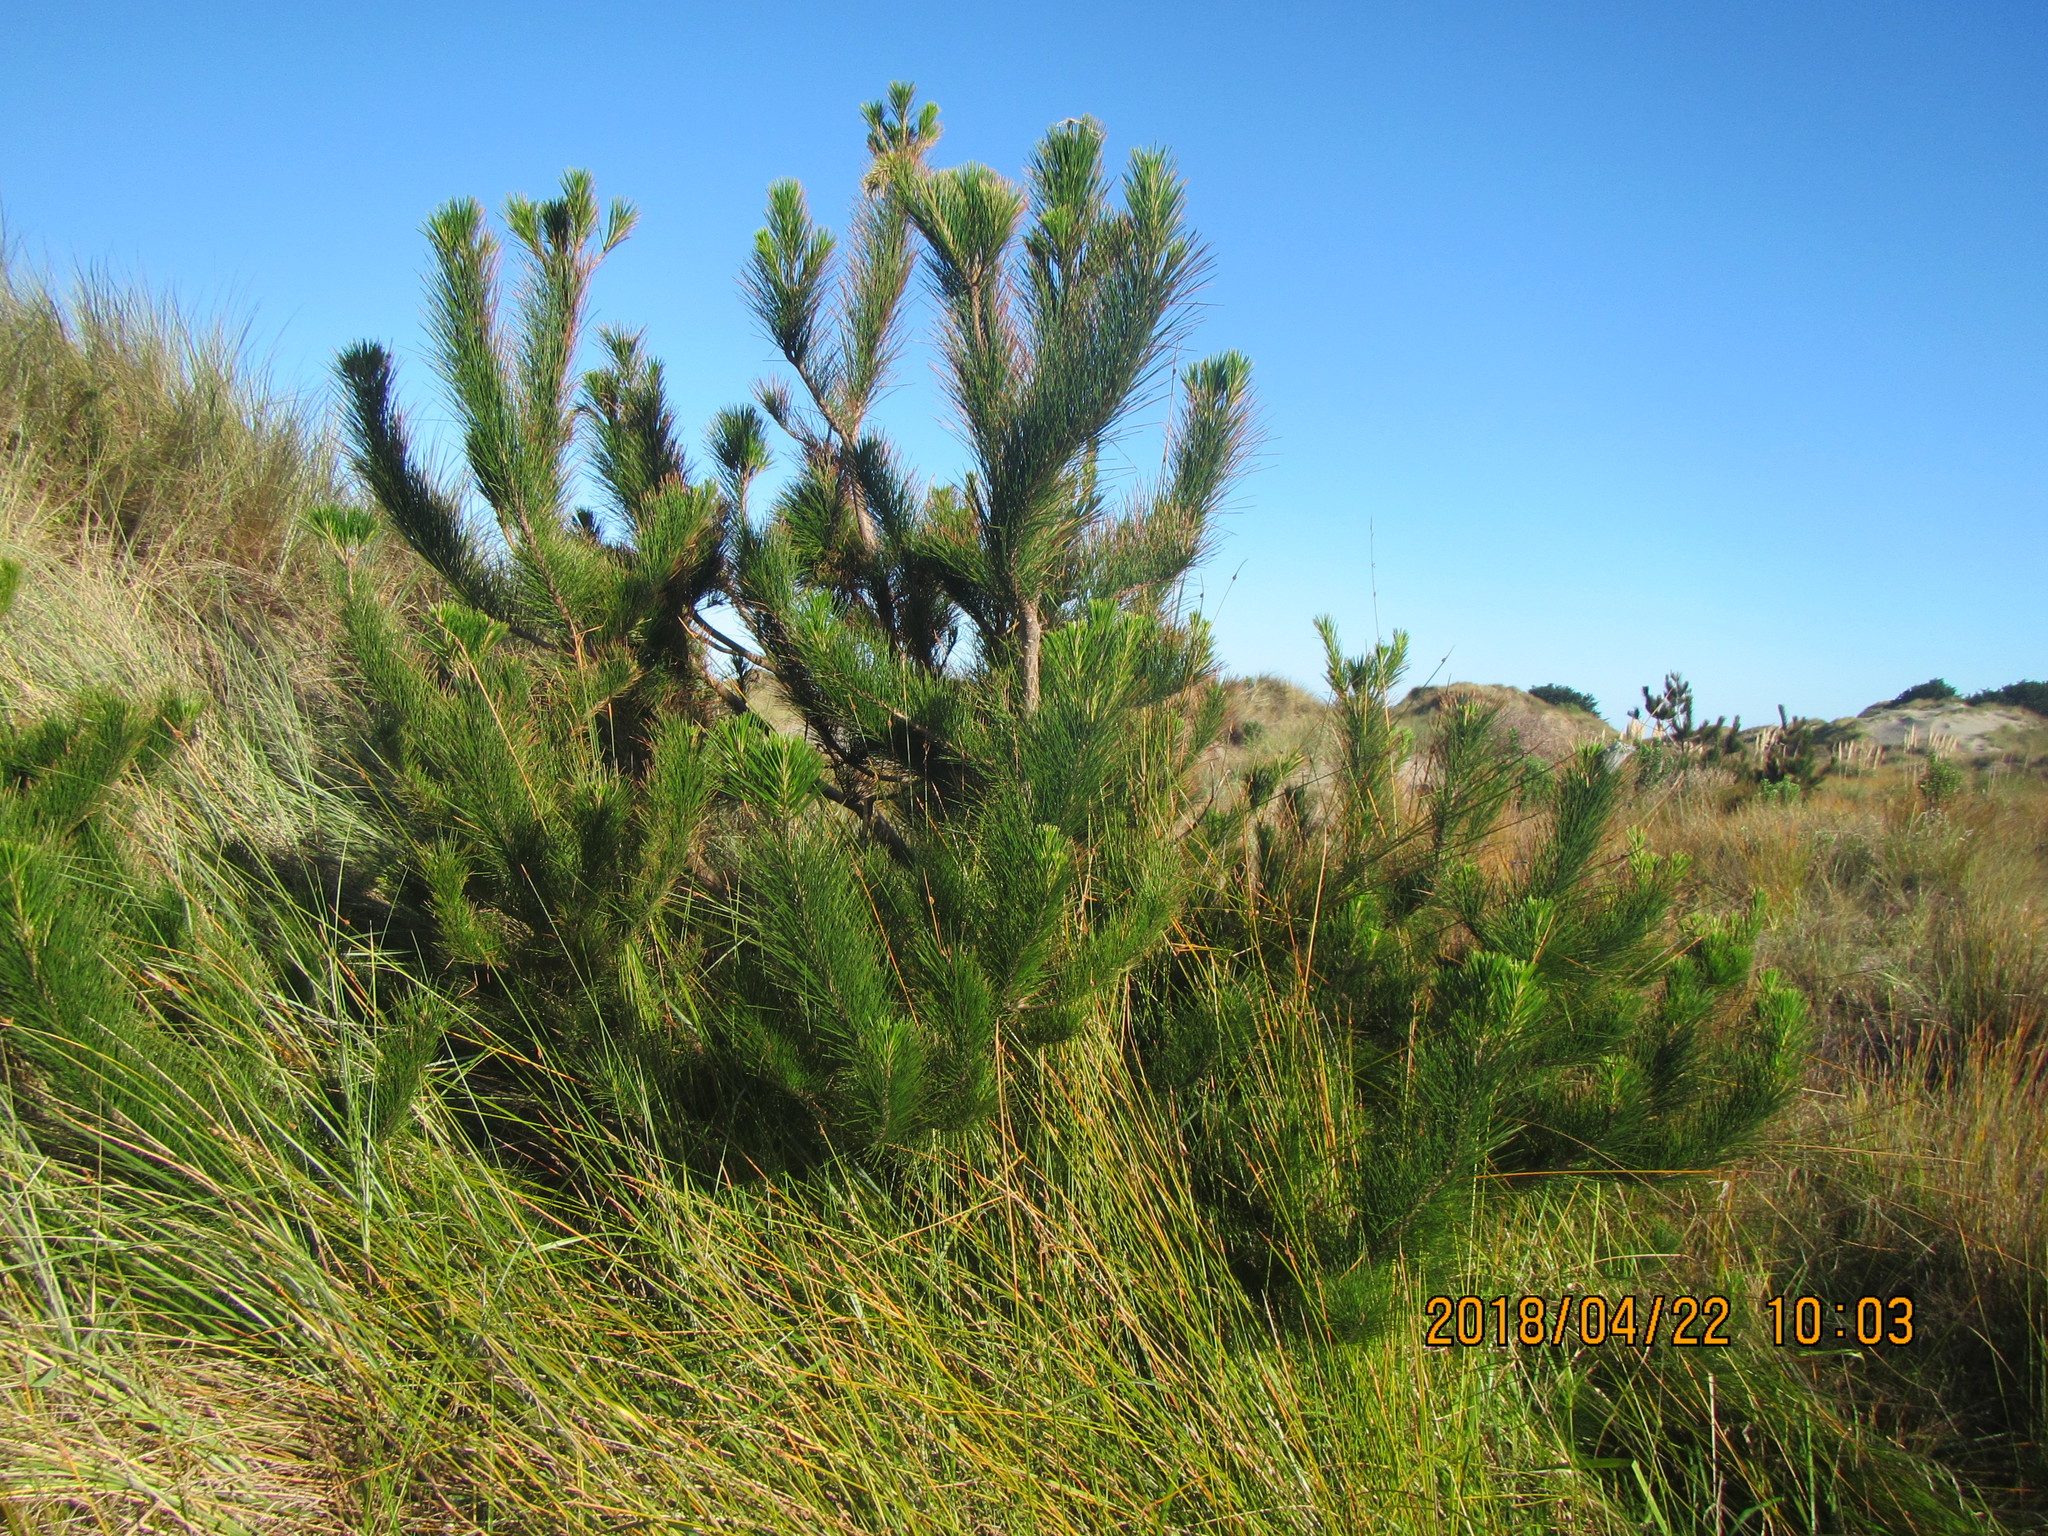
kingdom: Plantae
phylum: Tracheophyta
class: Pinopsida
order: Pinales
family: Pinaceae
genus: Pinus
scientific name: Pinus radiata
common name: Monterey pine
